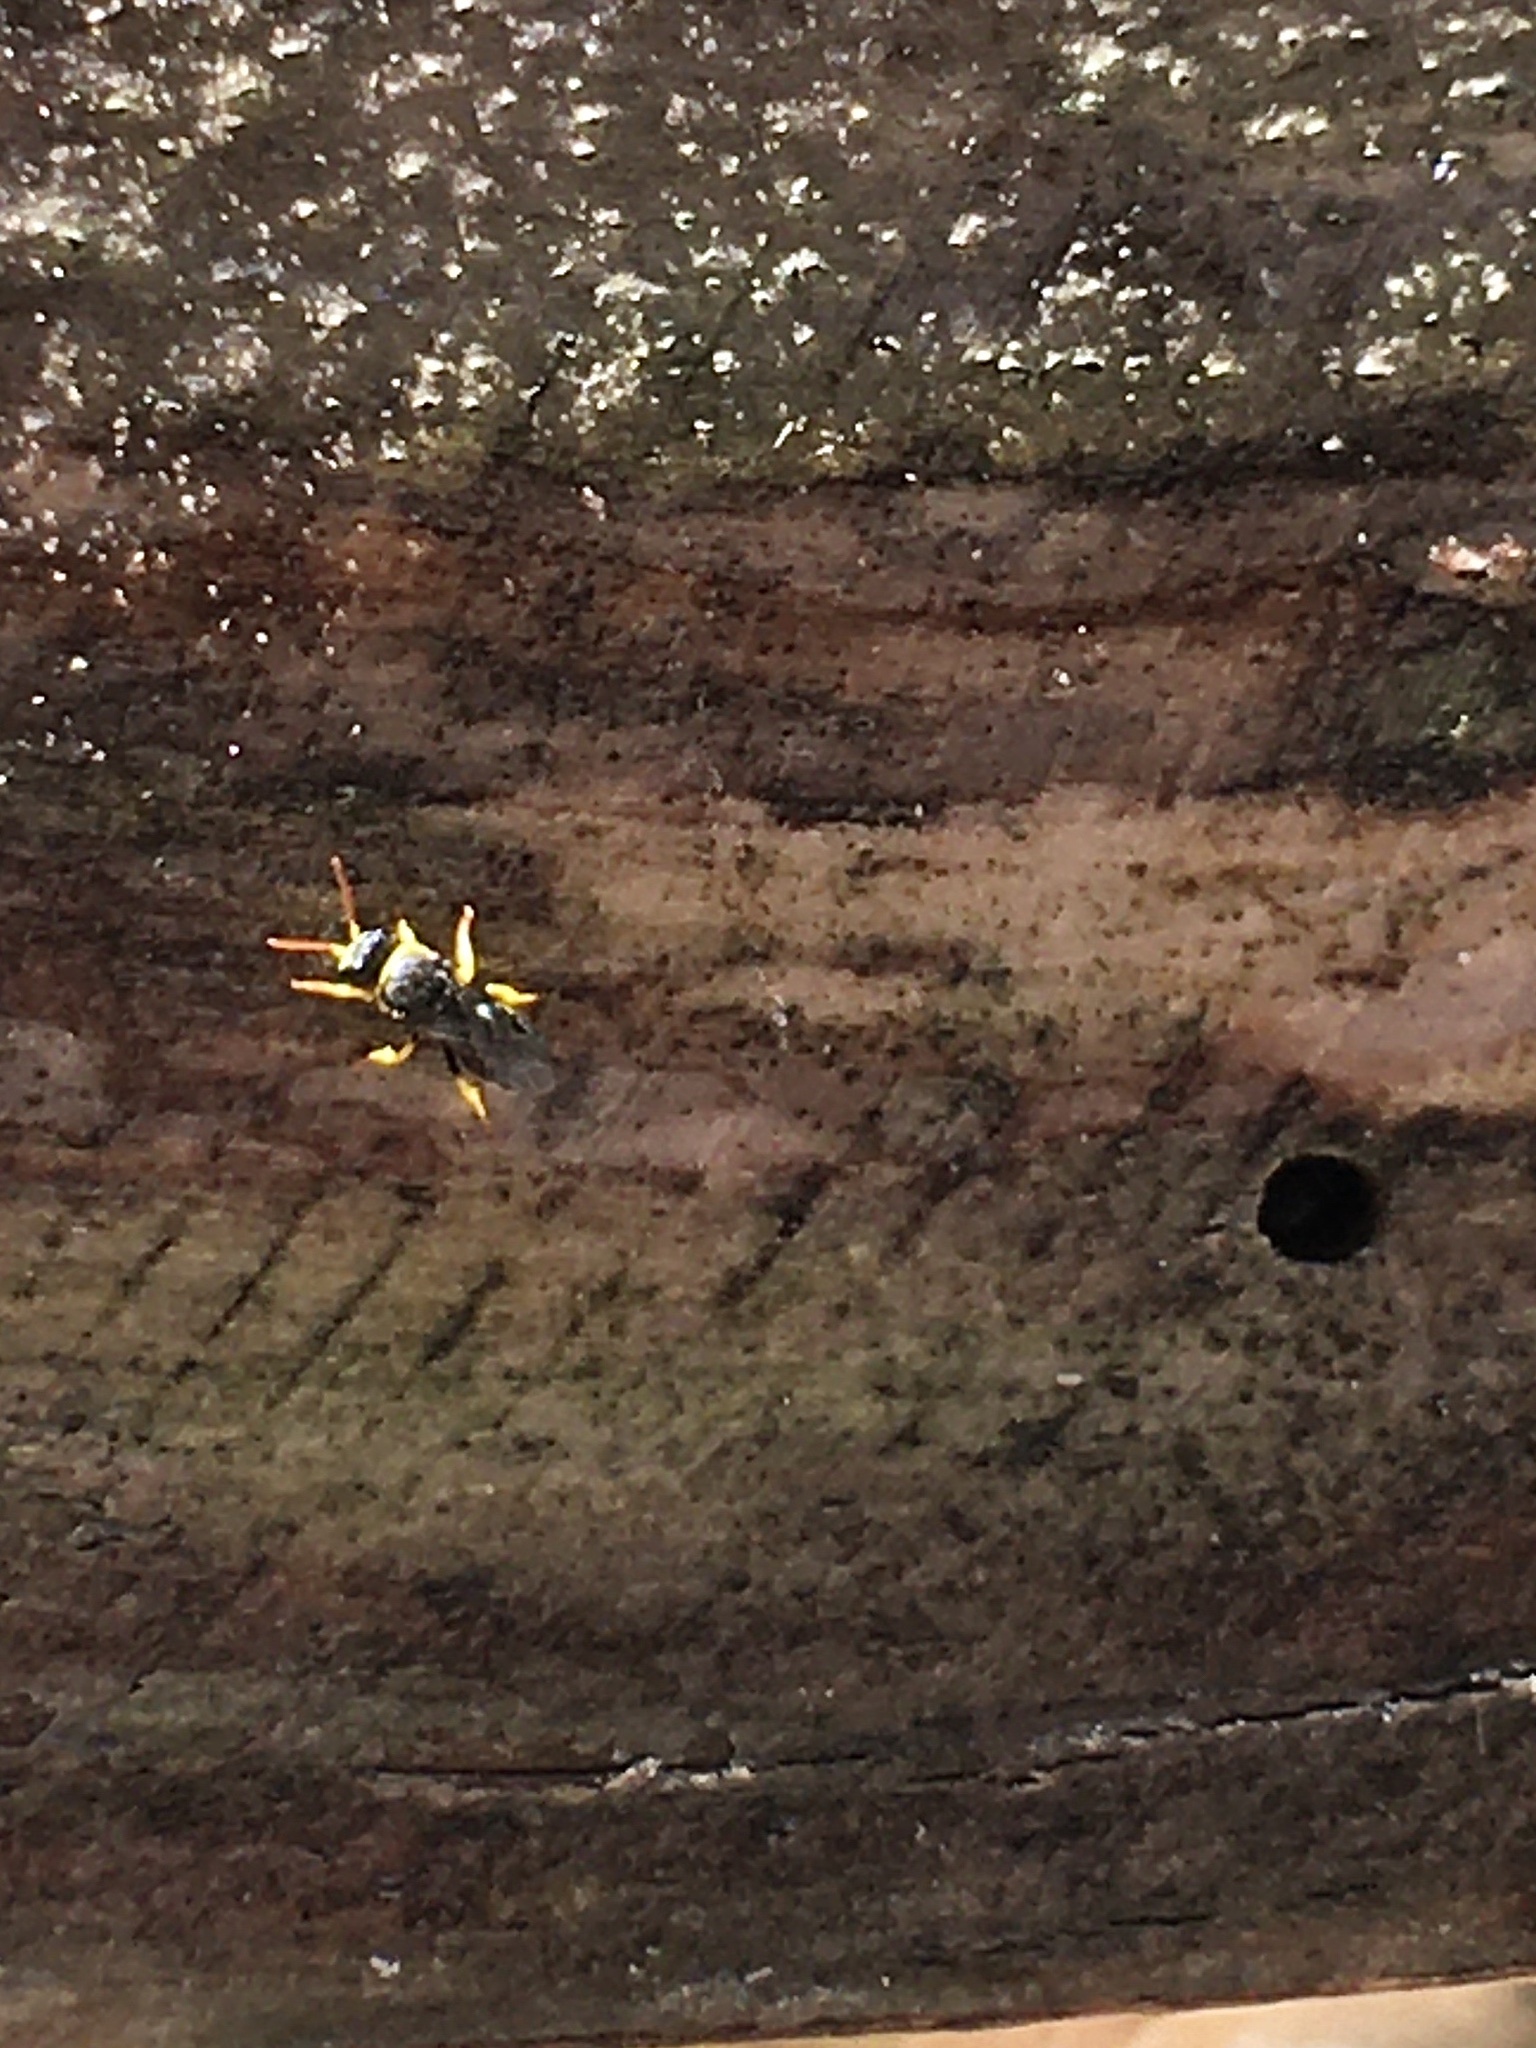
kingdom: Animalia
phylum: Arthropoda
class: Insecta
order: Hymenoptera
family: Colletidae
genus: Hylaeus
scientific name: Hylaeus euxanthus
